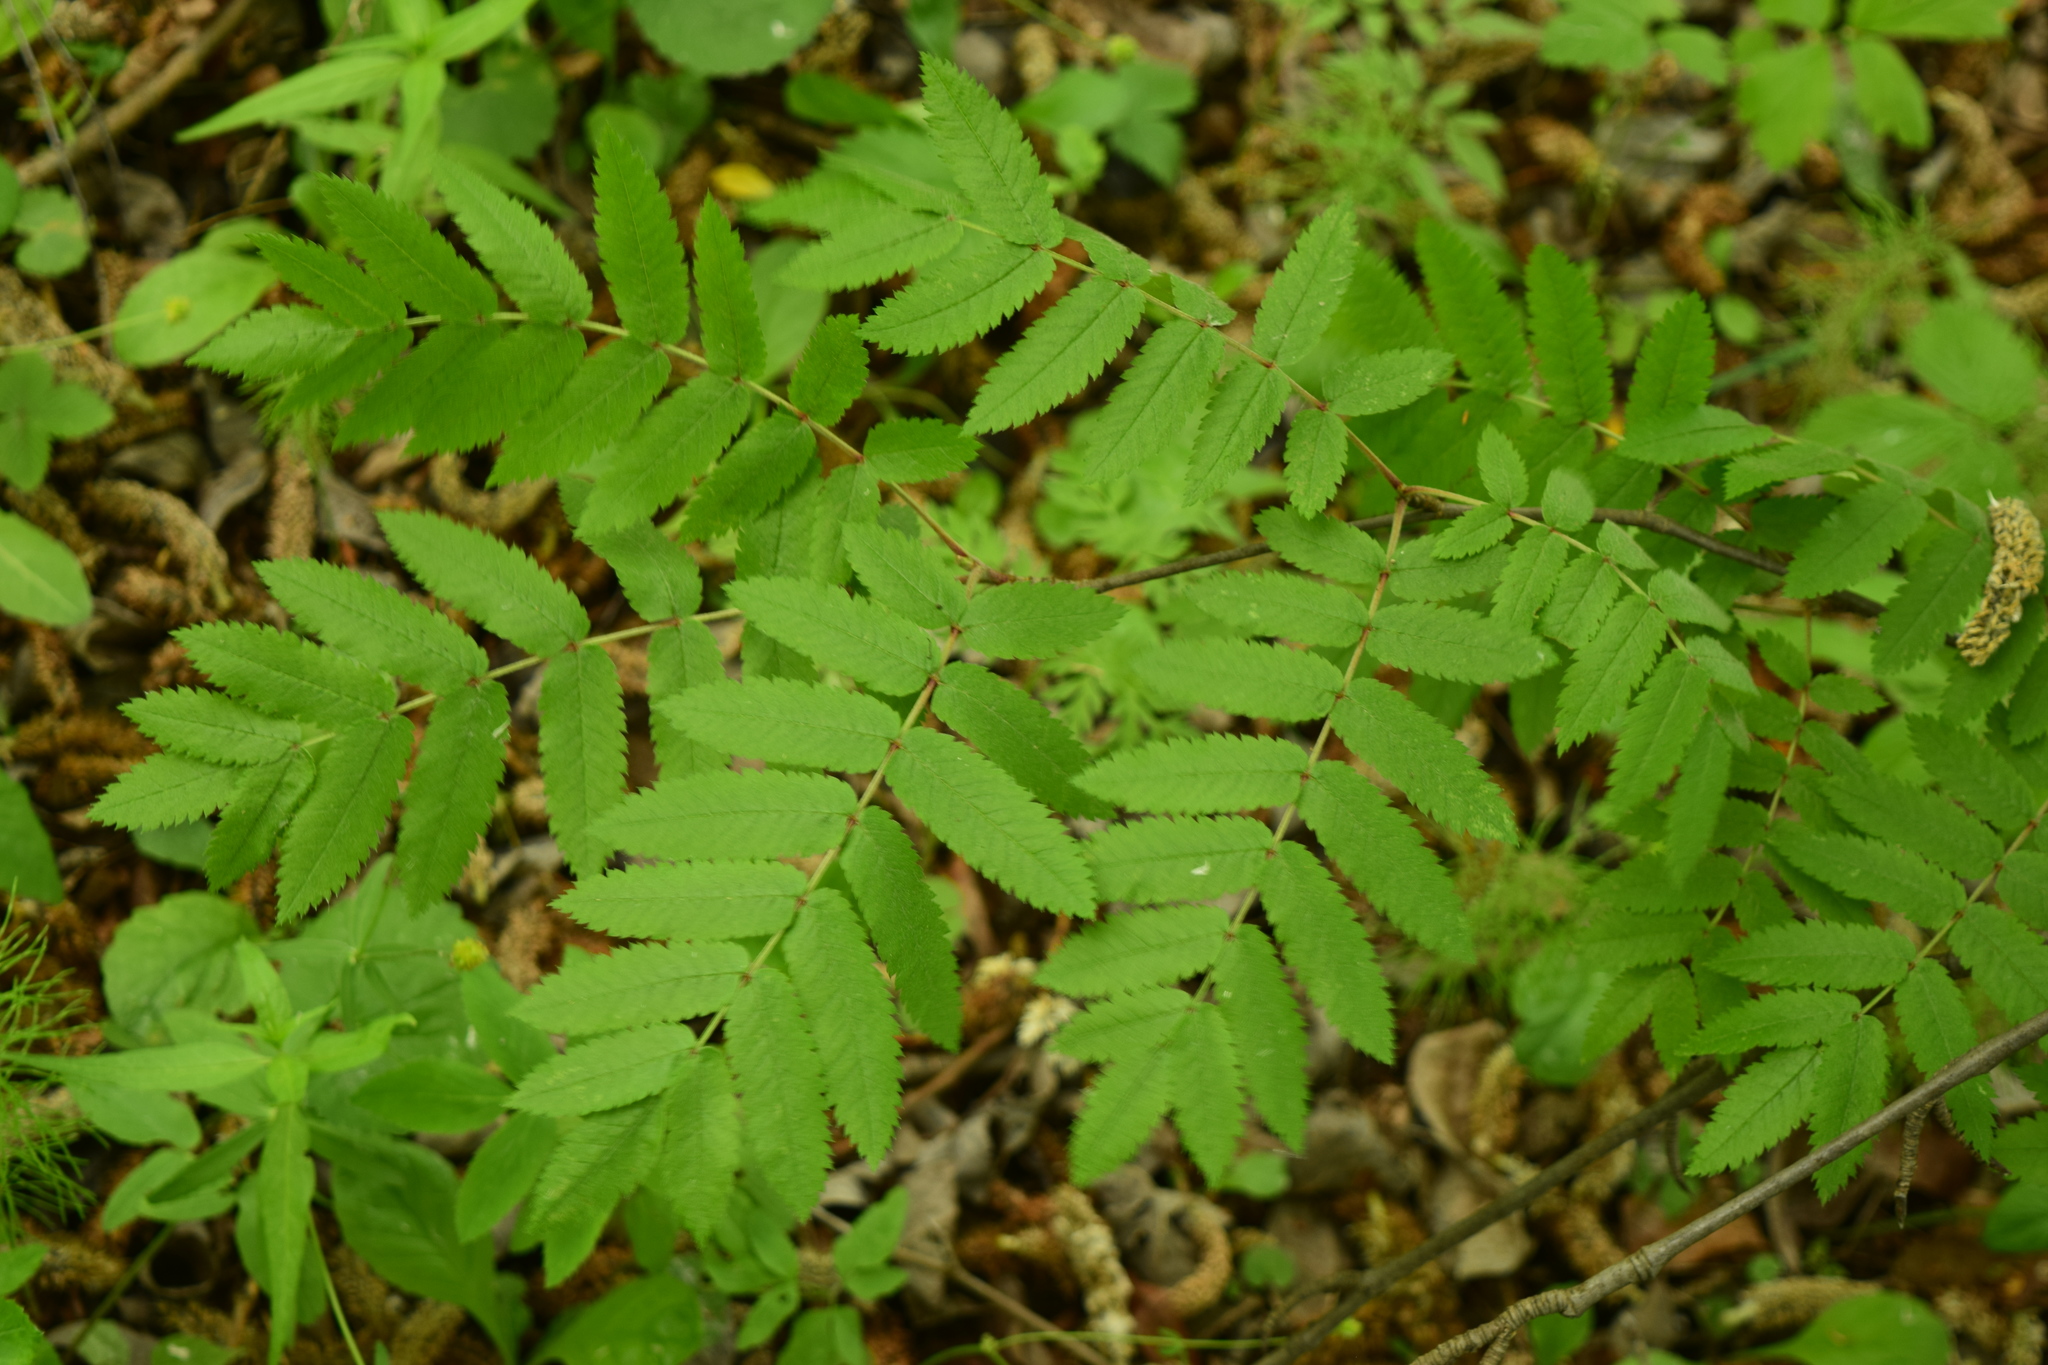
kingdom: Plantae
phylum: Tracheophyta
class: Magnoliopsida
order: Rosales
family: Rosaceae
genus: Sorbus
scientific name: Sorbus aucuparia
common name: Rowan
